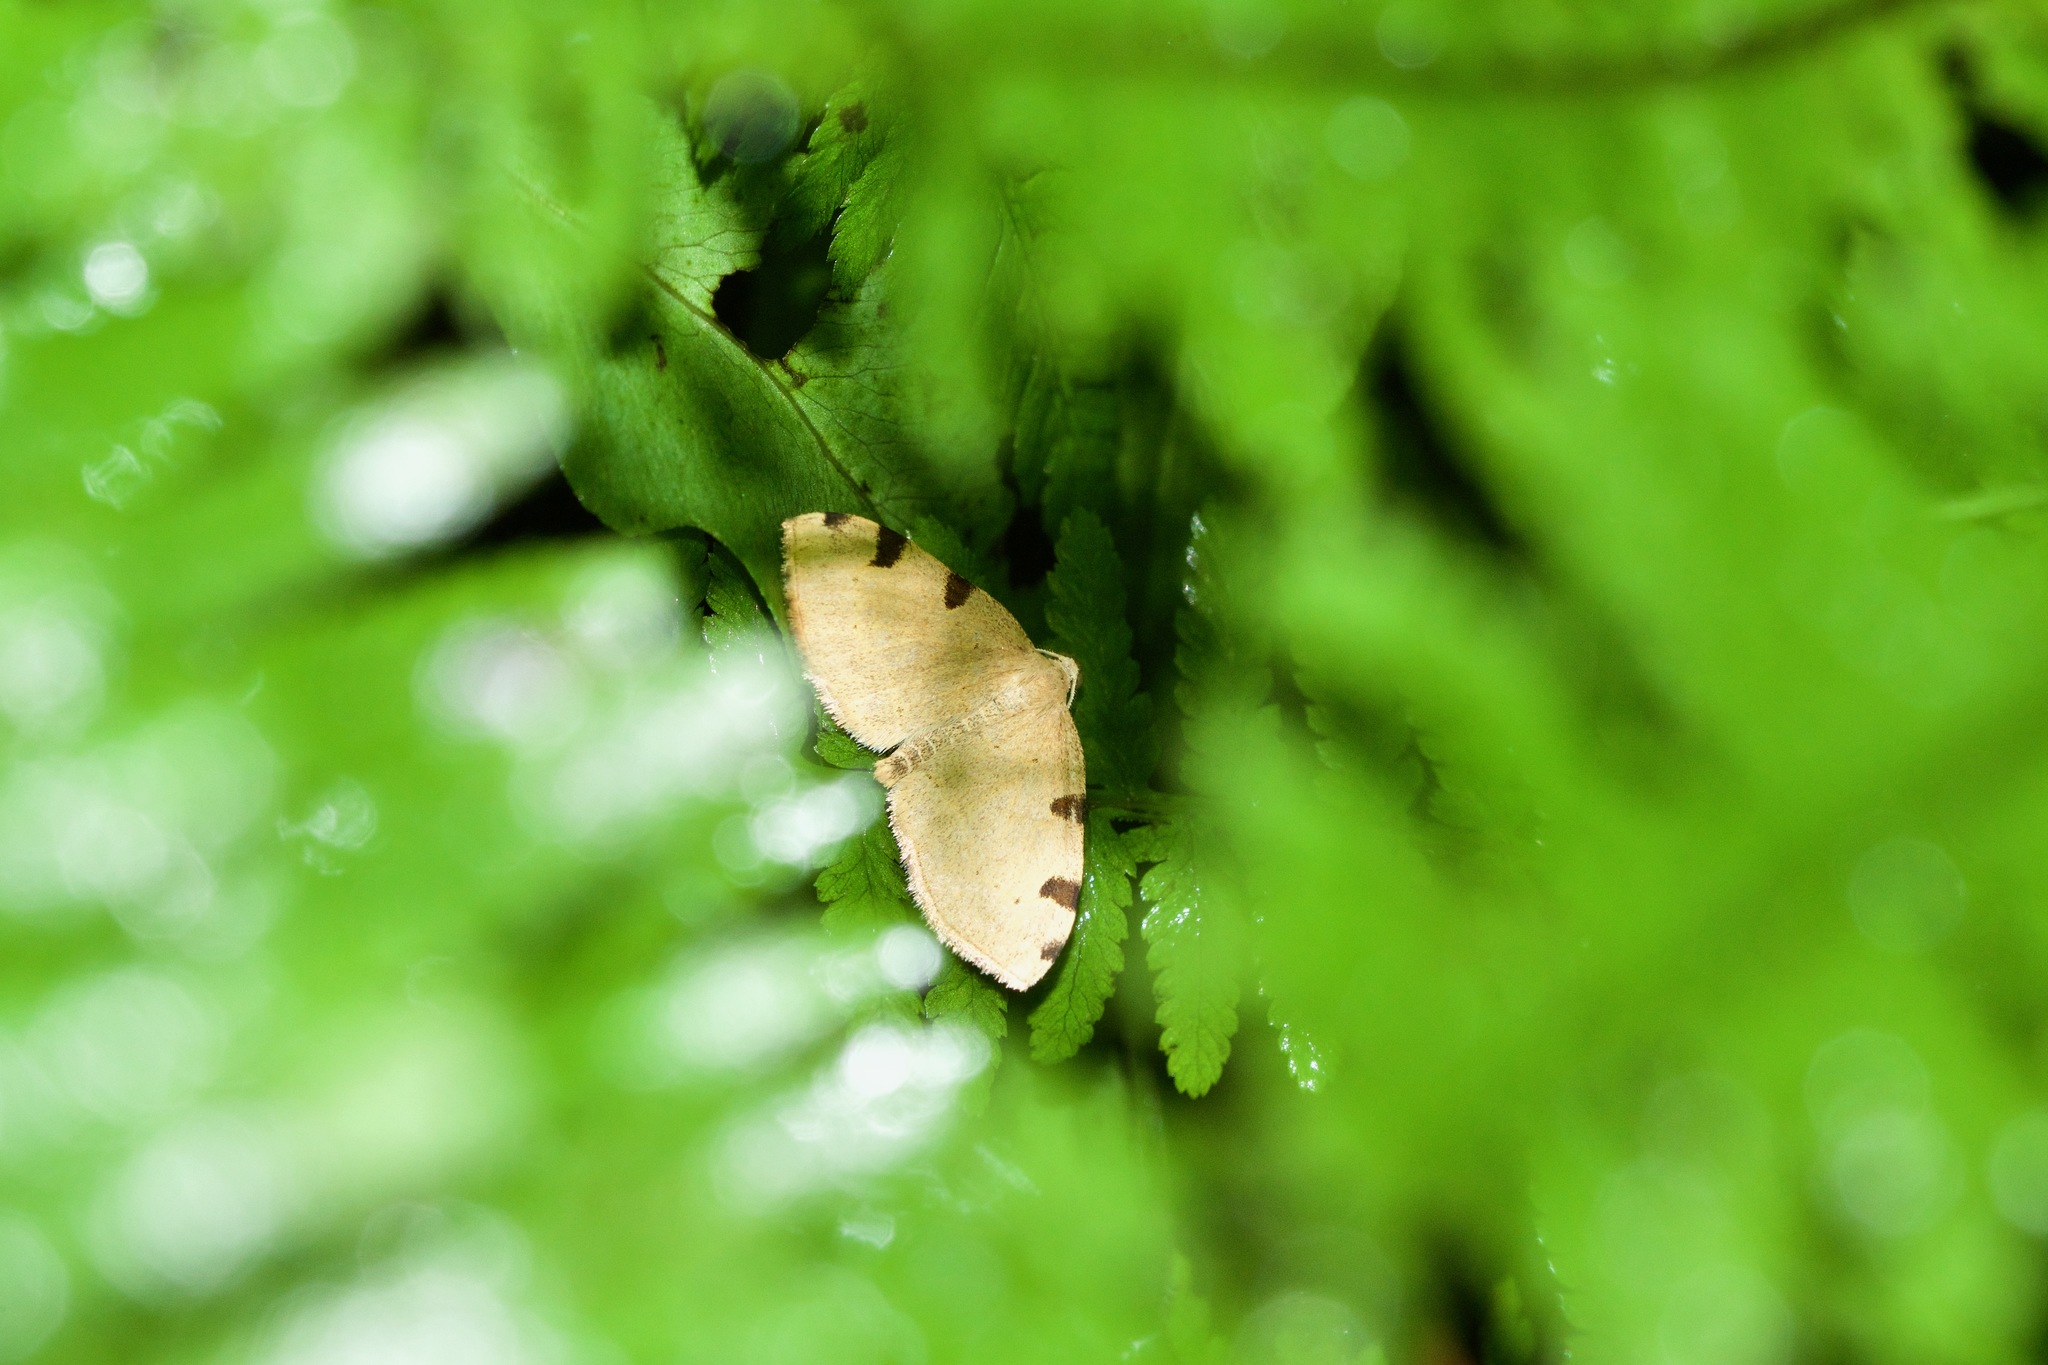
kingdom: Animalia
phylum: Arthropoda
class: Insecta
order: Lepidoptera
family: Geometridae
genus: Heterophleps
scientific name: Heterophleps triguttaria
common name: Three-spotted fillip
